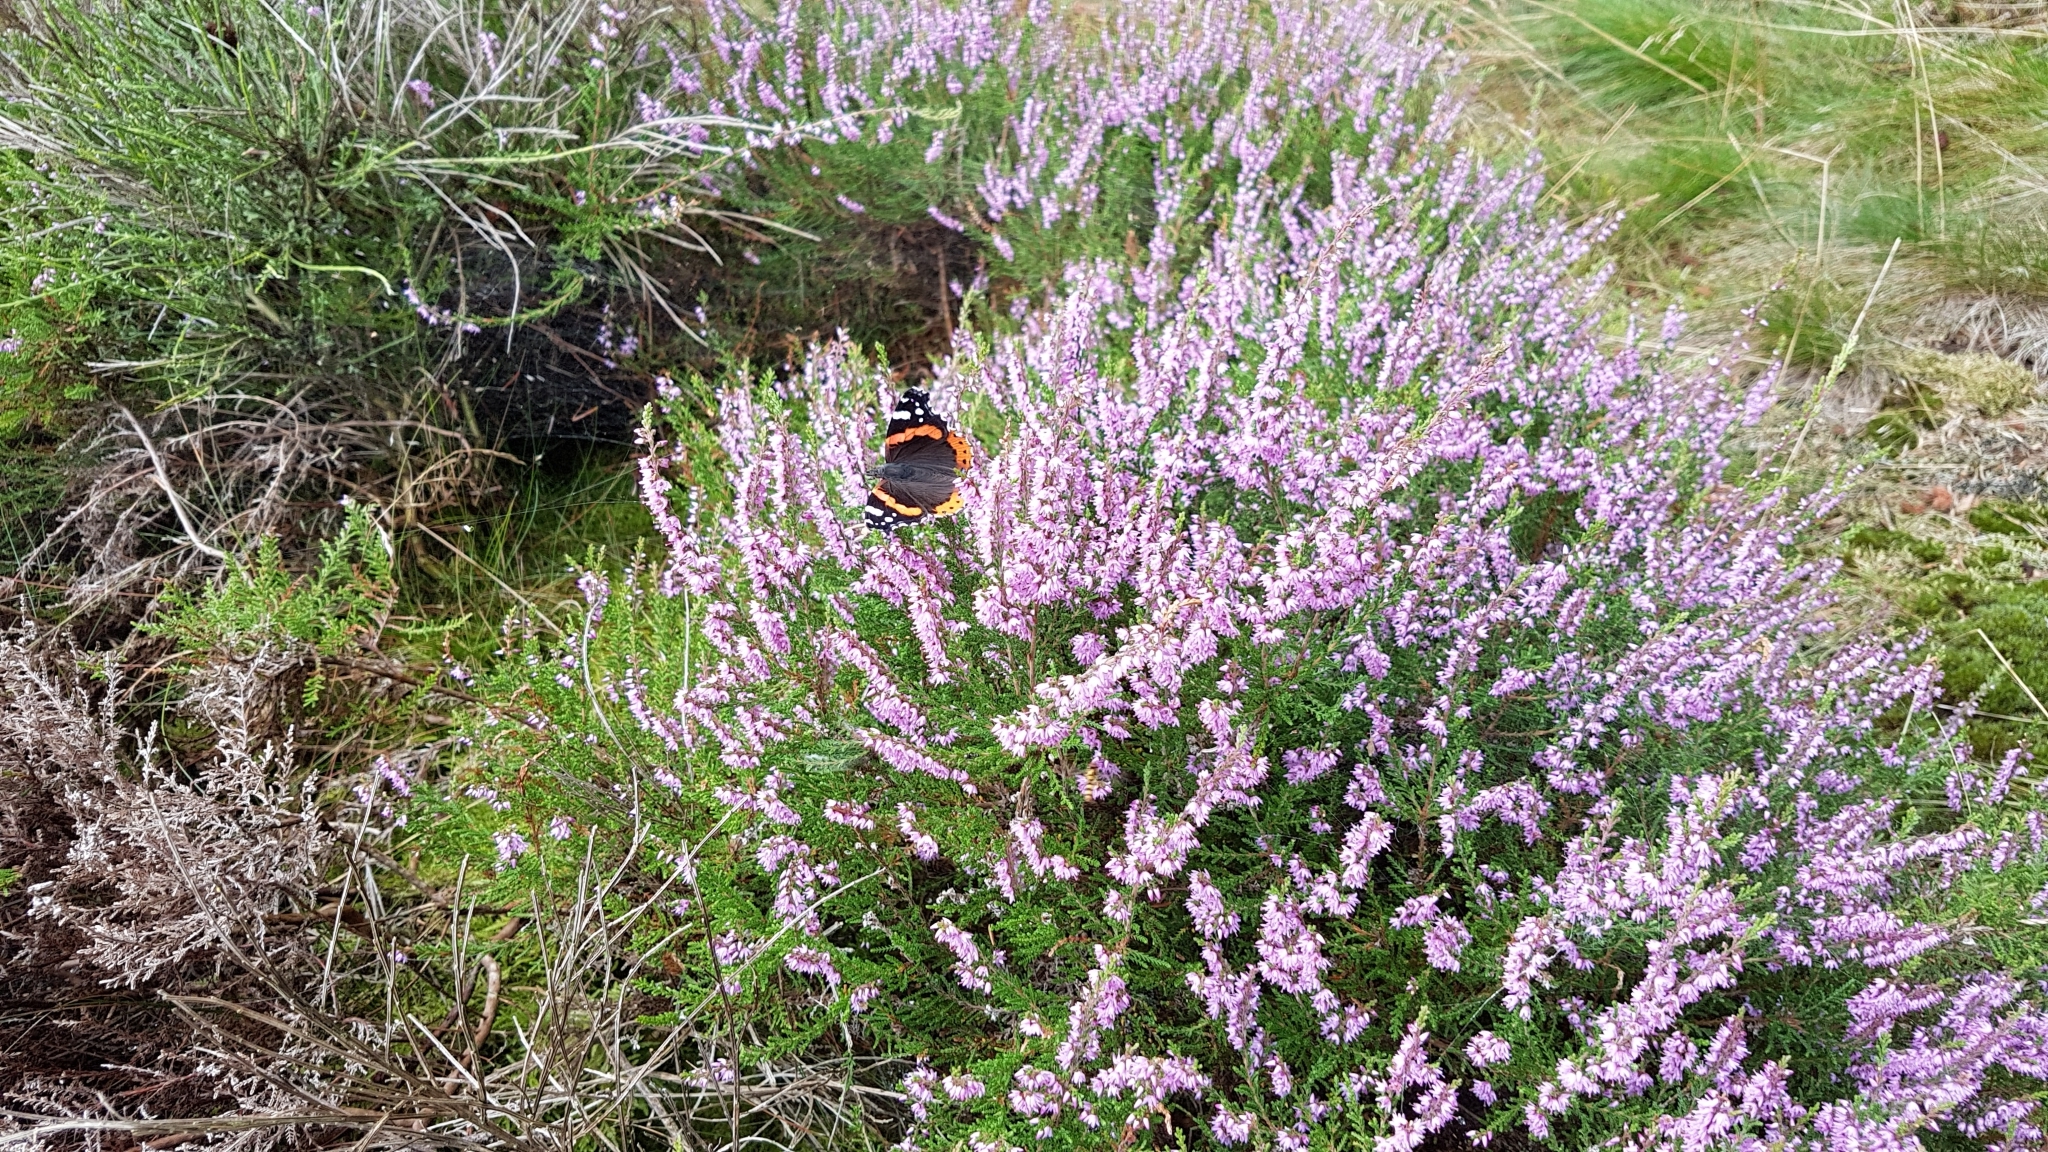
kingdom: Animalia
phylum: Arthropoda
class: Insecta
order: Lepidoptera
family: Nymphalidae
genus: Vanessa
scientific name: Vanessa atalanta
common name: Red admiral
